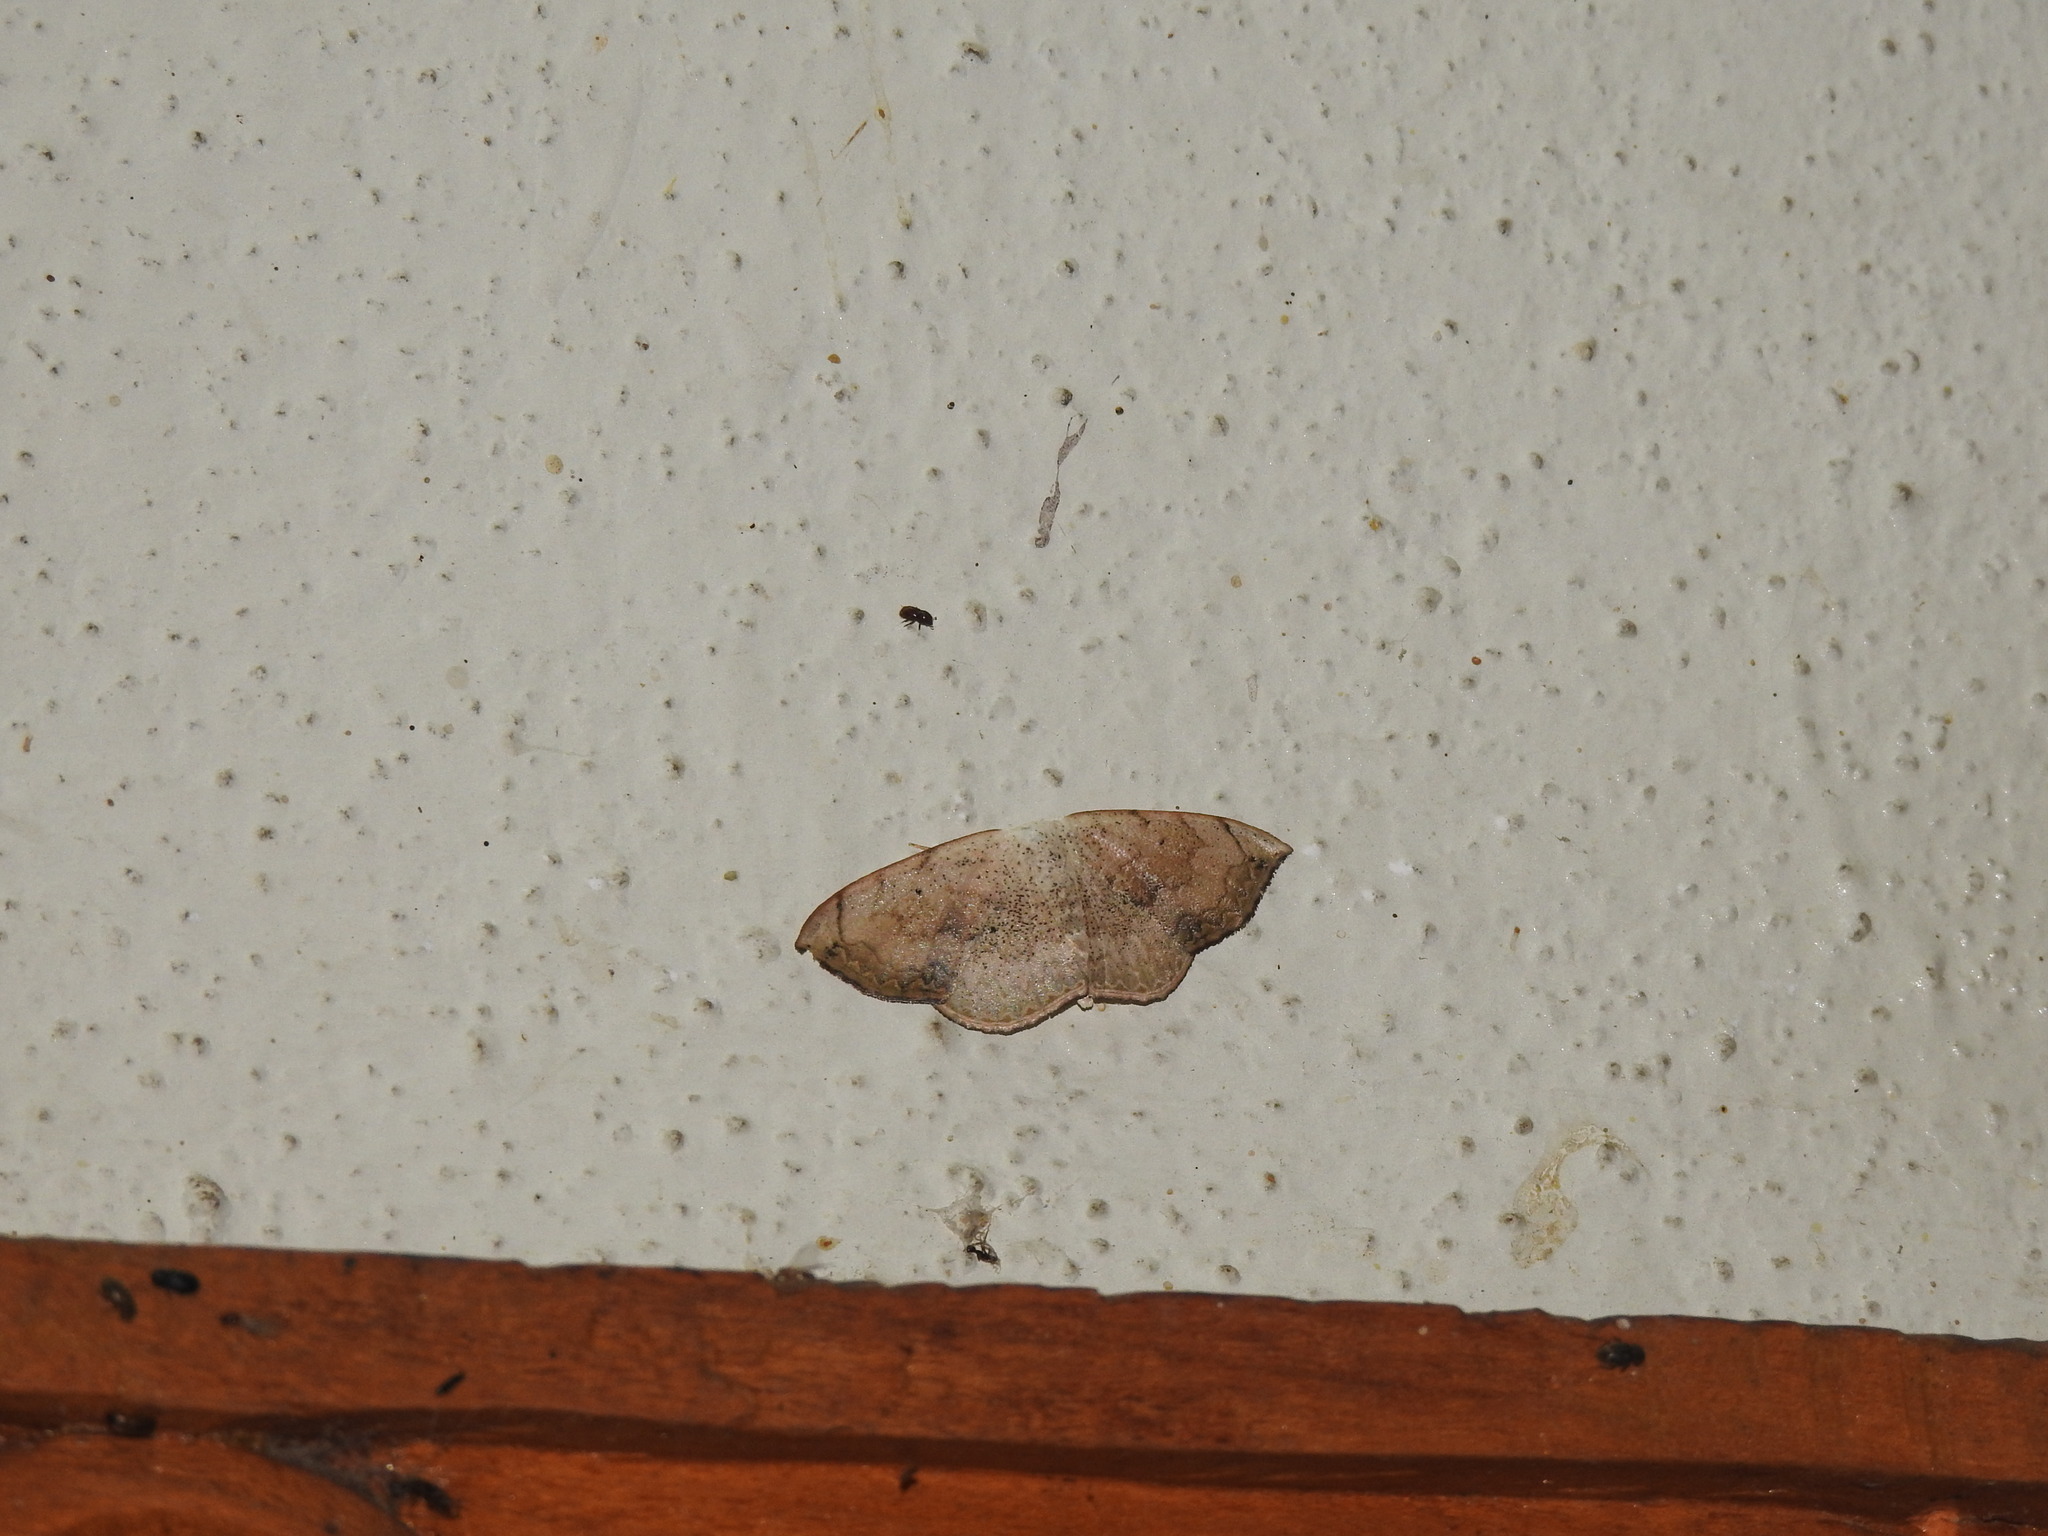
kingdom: Animalia
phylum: Arthropoda
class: Insecta
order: Lepidoptera
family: Geometridae
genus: Somatina
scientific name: Somatina purpurascens
